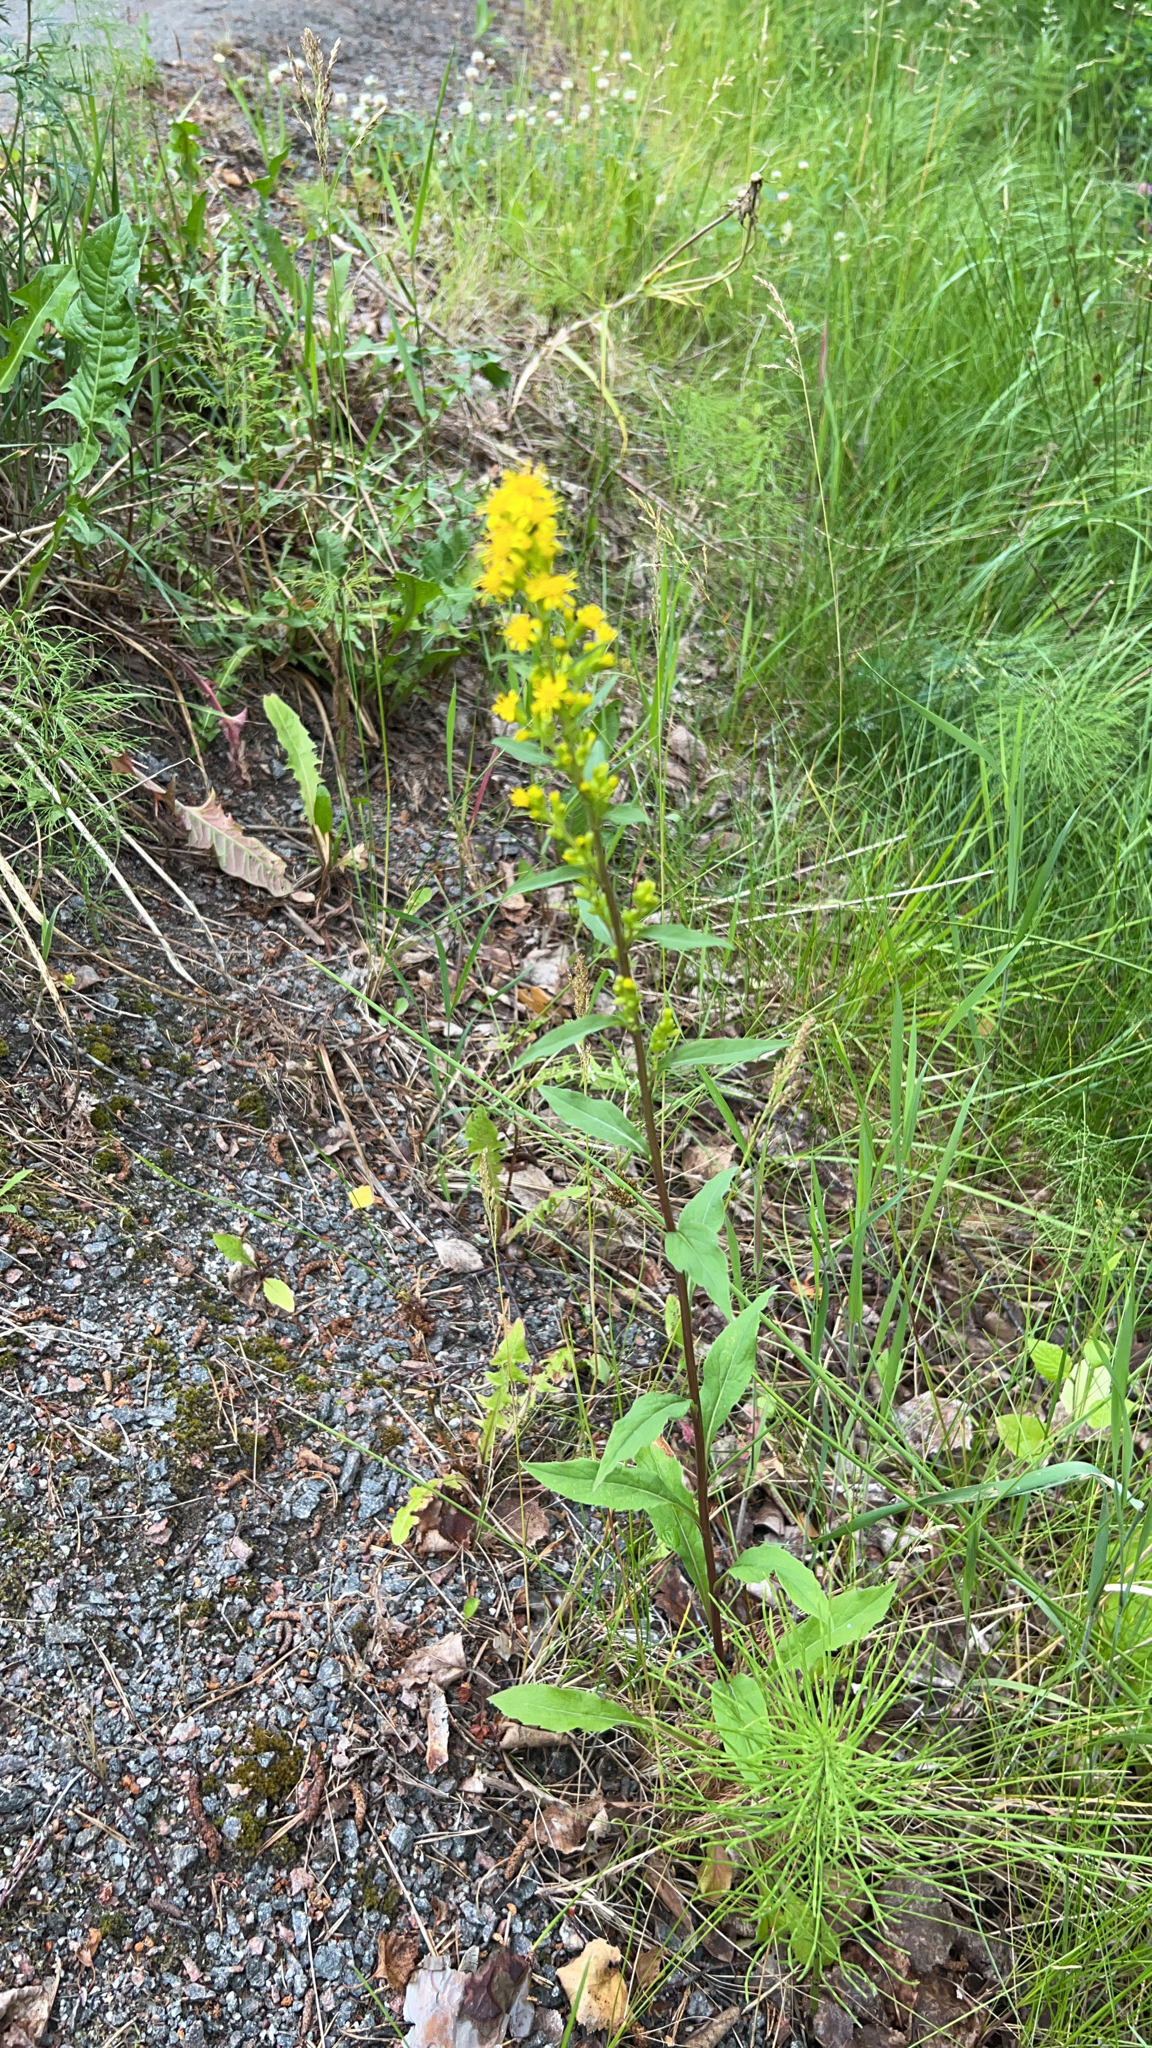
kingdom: Plantae
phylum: Tracheophyta
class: Magnoliopsida
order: Asterales
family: Asteraceae
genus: Solidago
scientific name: Solidago virgaurea
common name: Goldenrod
